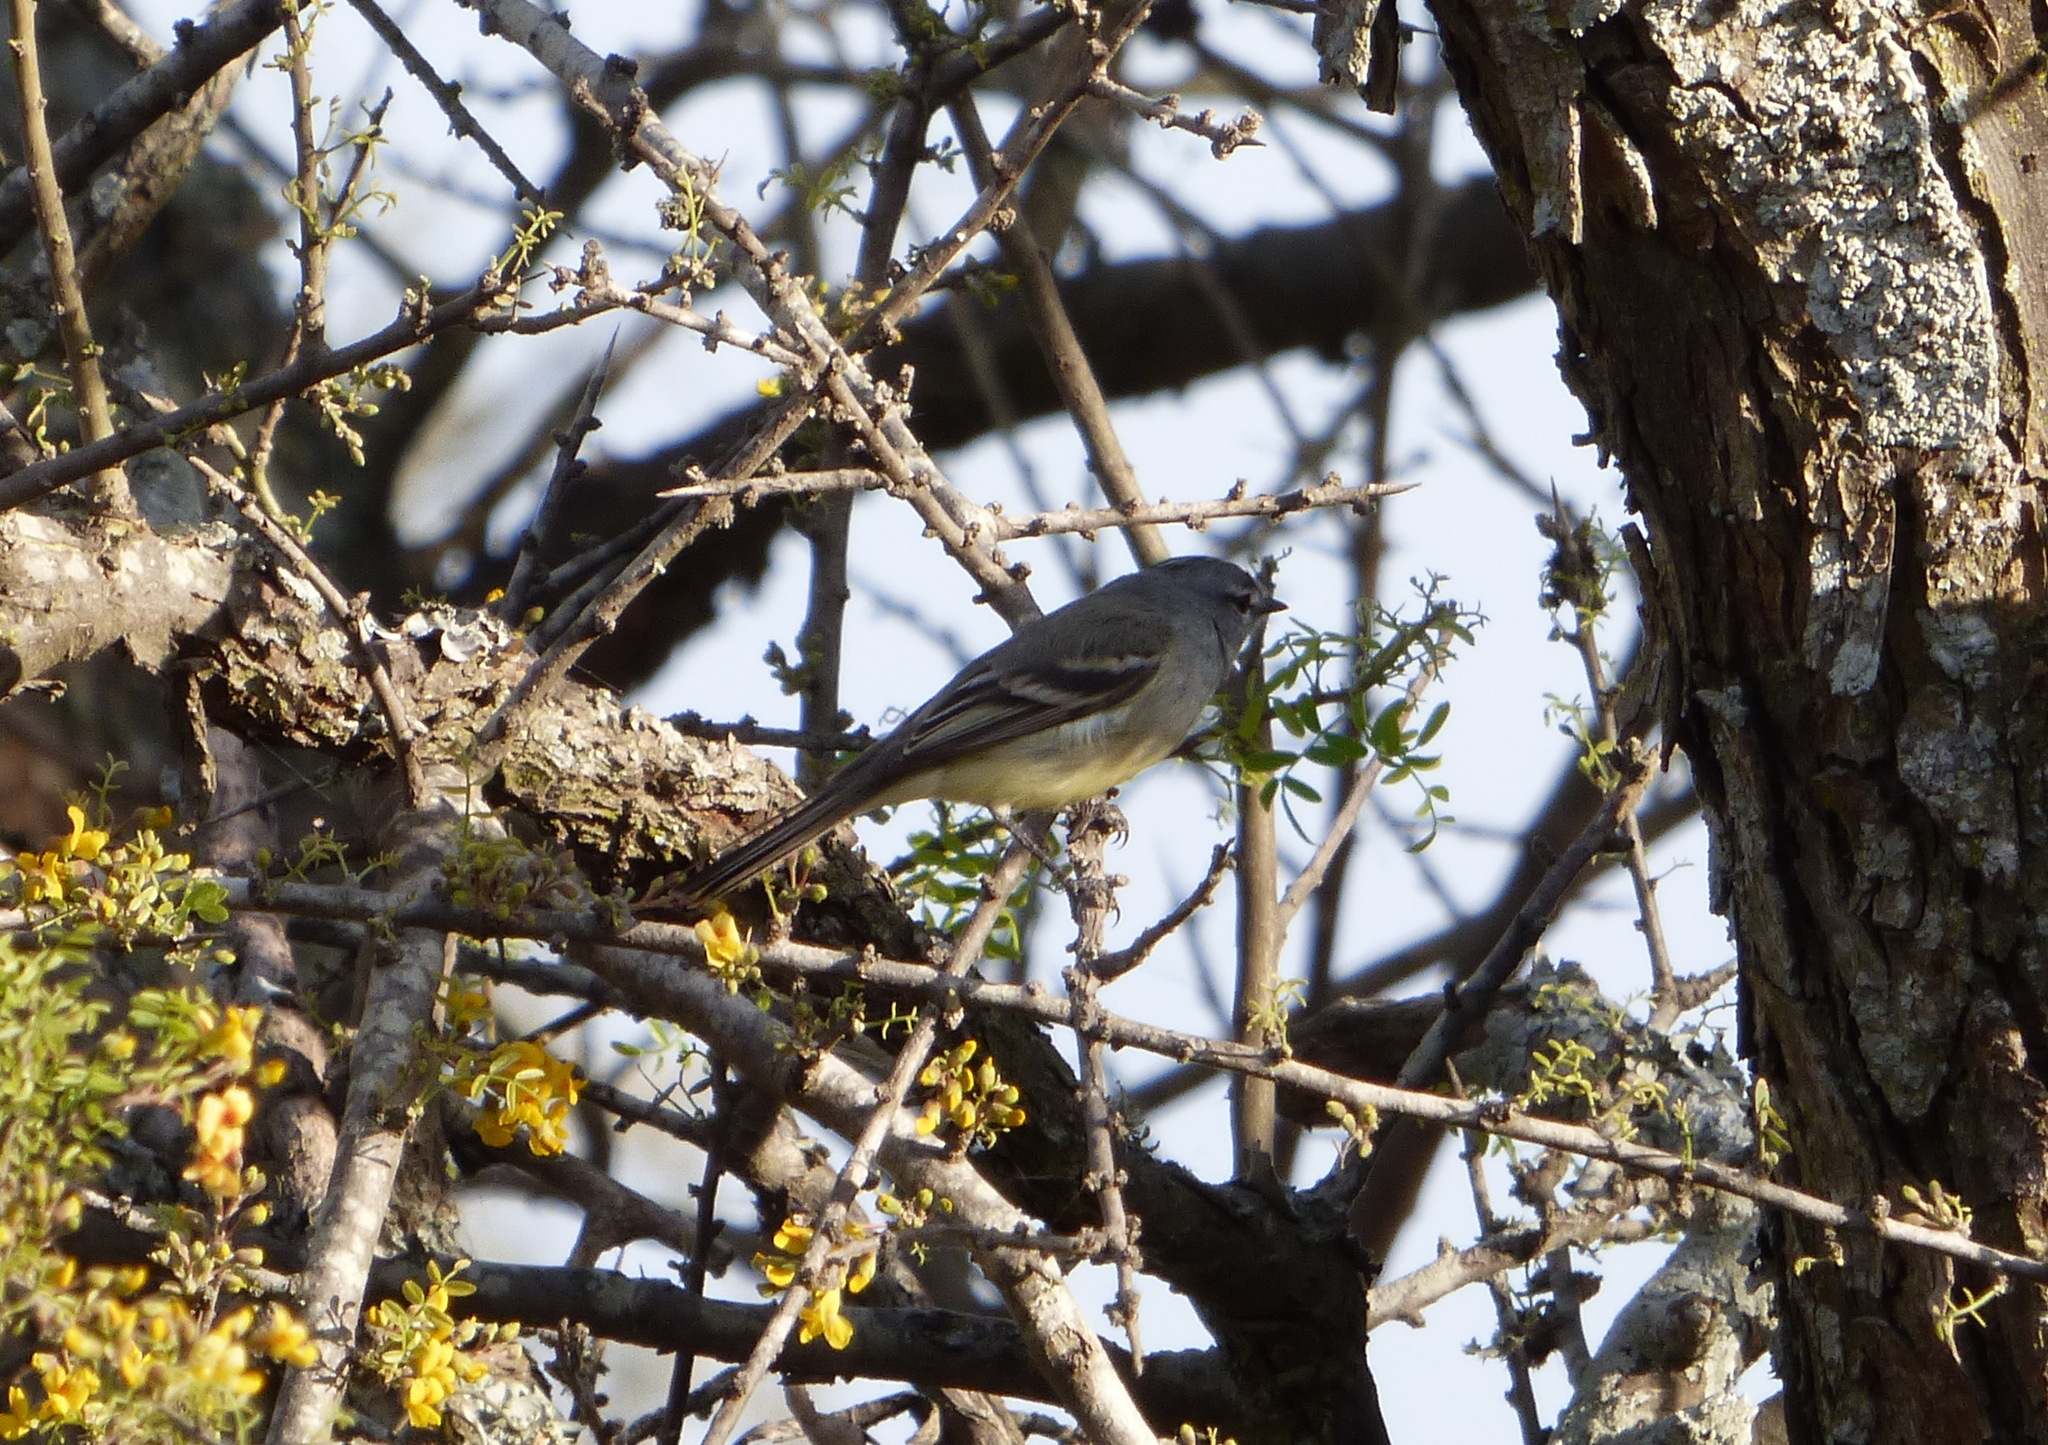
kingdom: Animalia
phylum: Chordata
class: Aves
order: Passeriformes
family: Tyrannidae
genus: Serpophaga
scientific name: Serpophaga griseicapilla
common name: Straneck's tyrannulet
